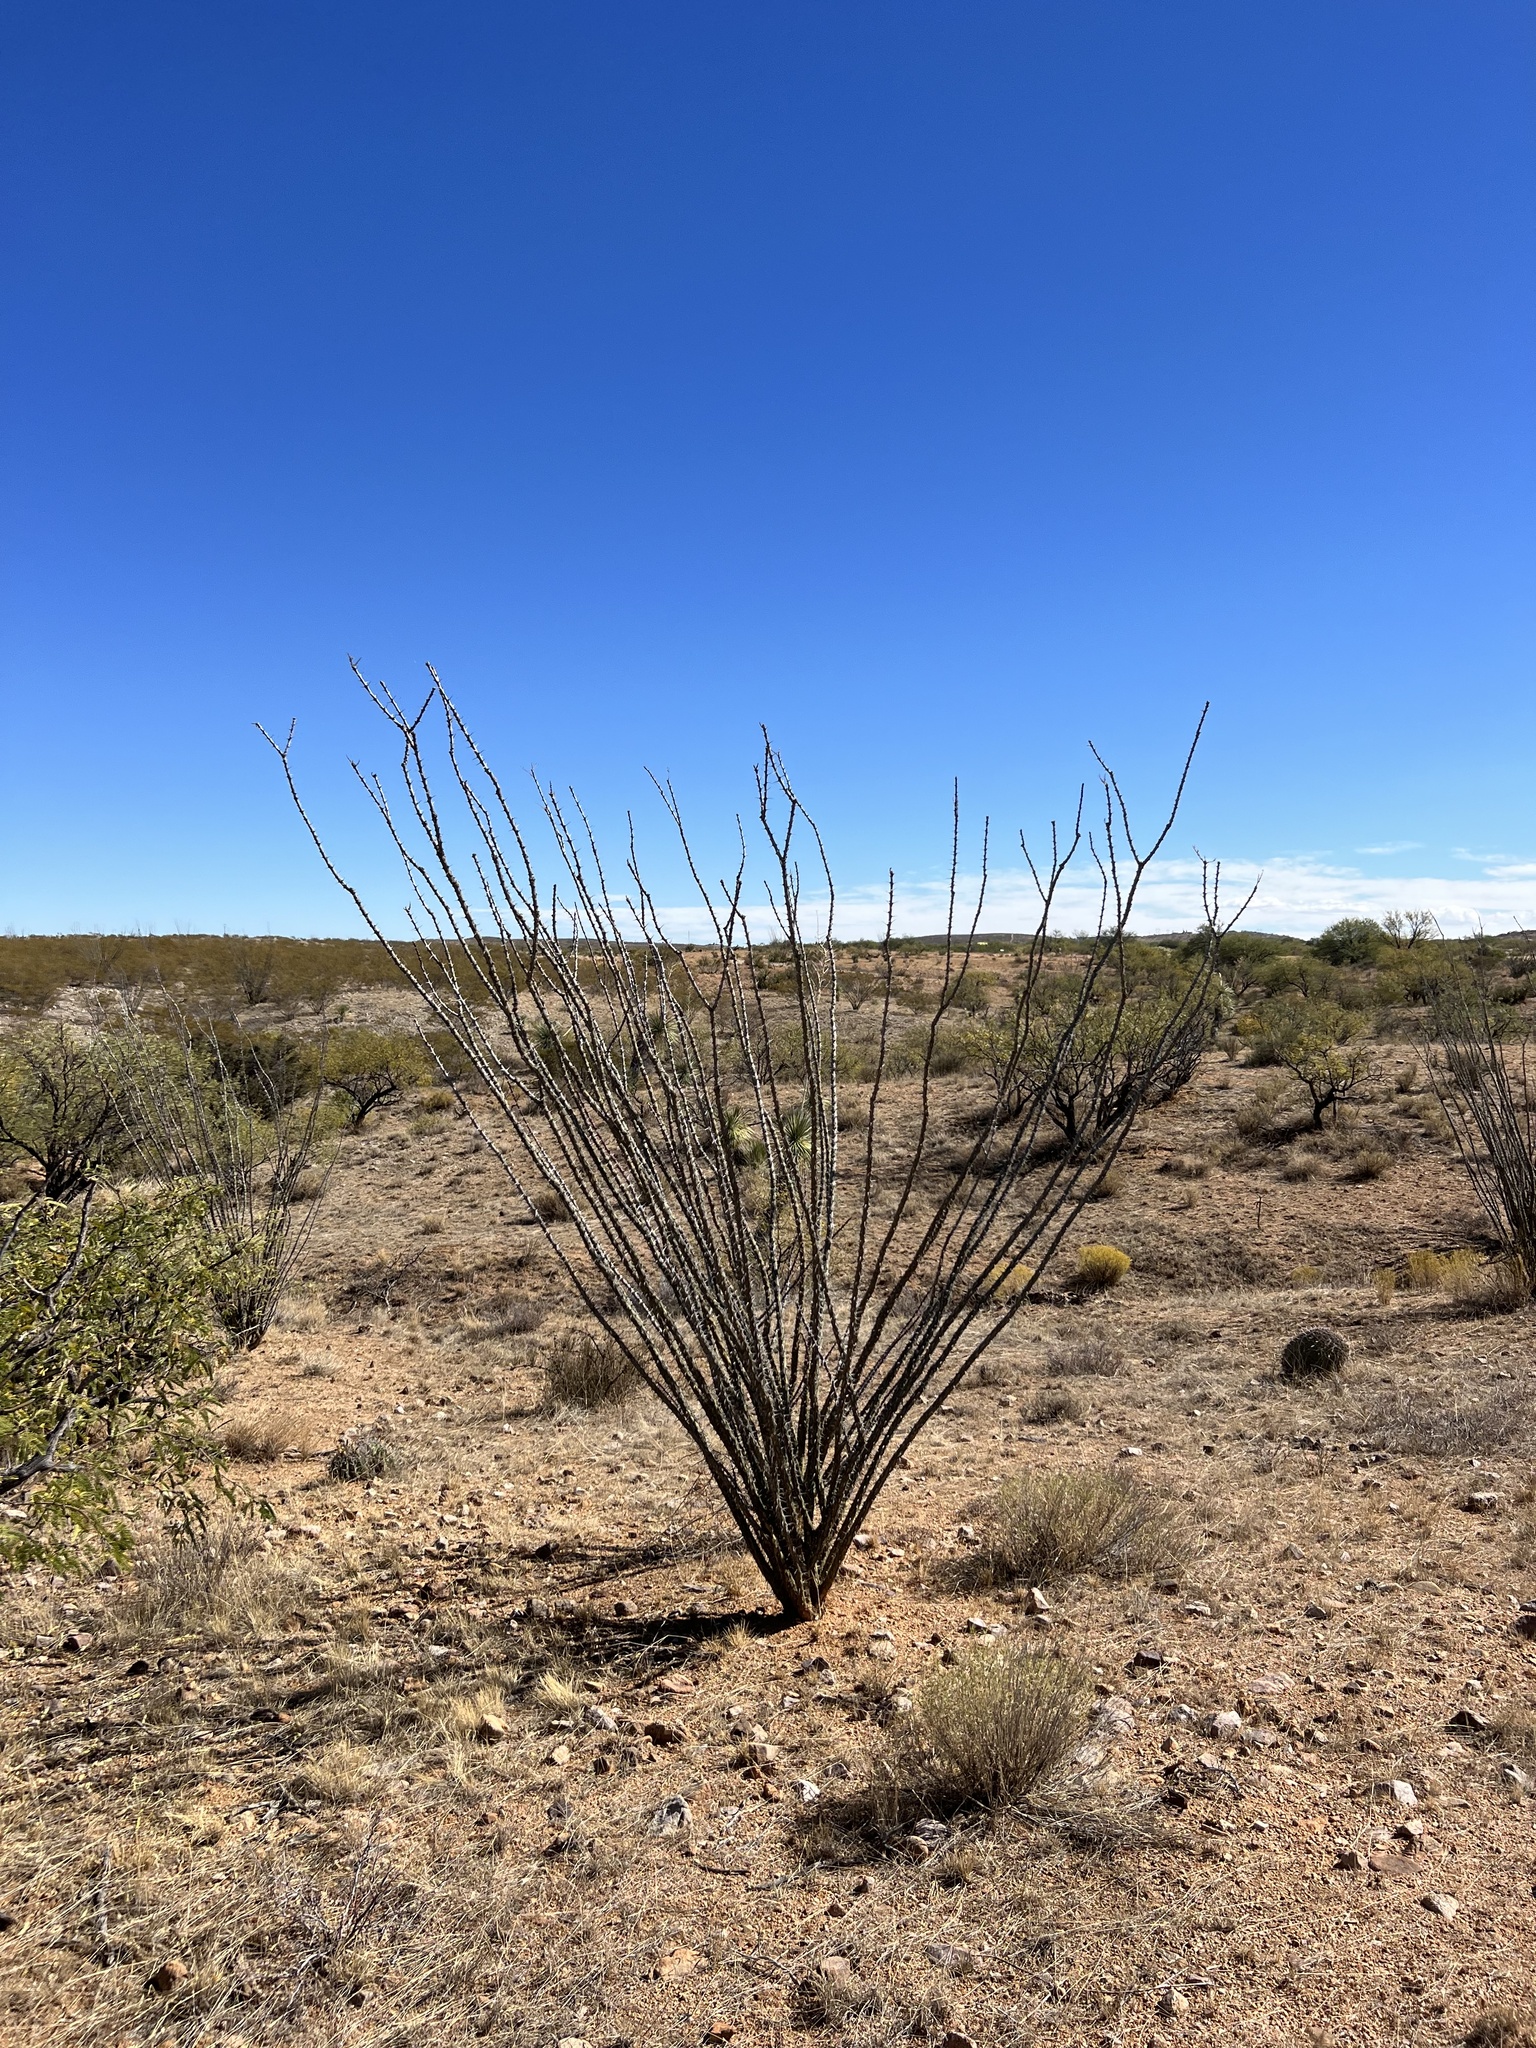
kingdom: Plantae
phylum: Tracheophyta
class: Magnoliopsida
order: Ericales
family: Fouquieriaceae
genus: Fouquieria
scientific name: Fouquieria splendens
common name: Vine-cactus
